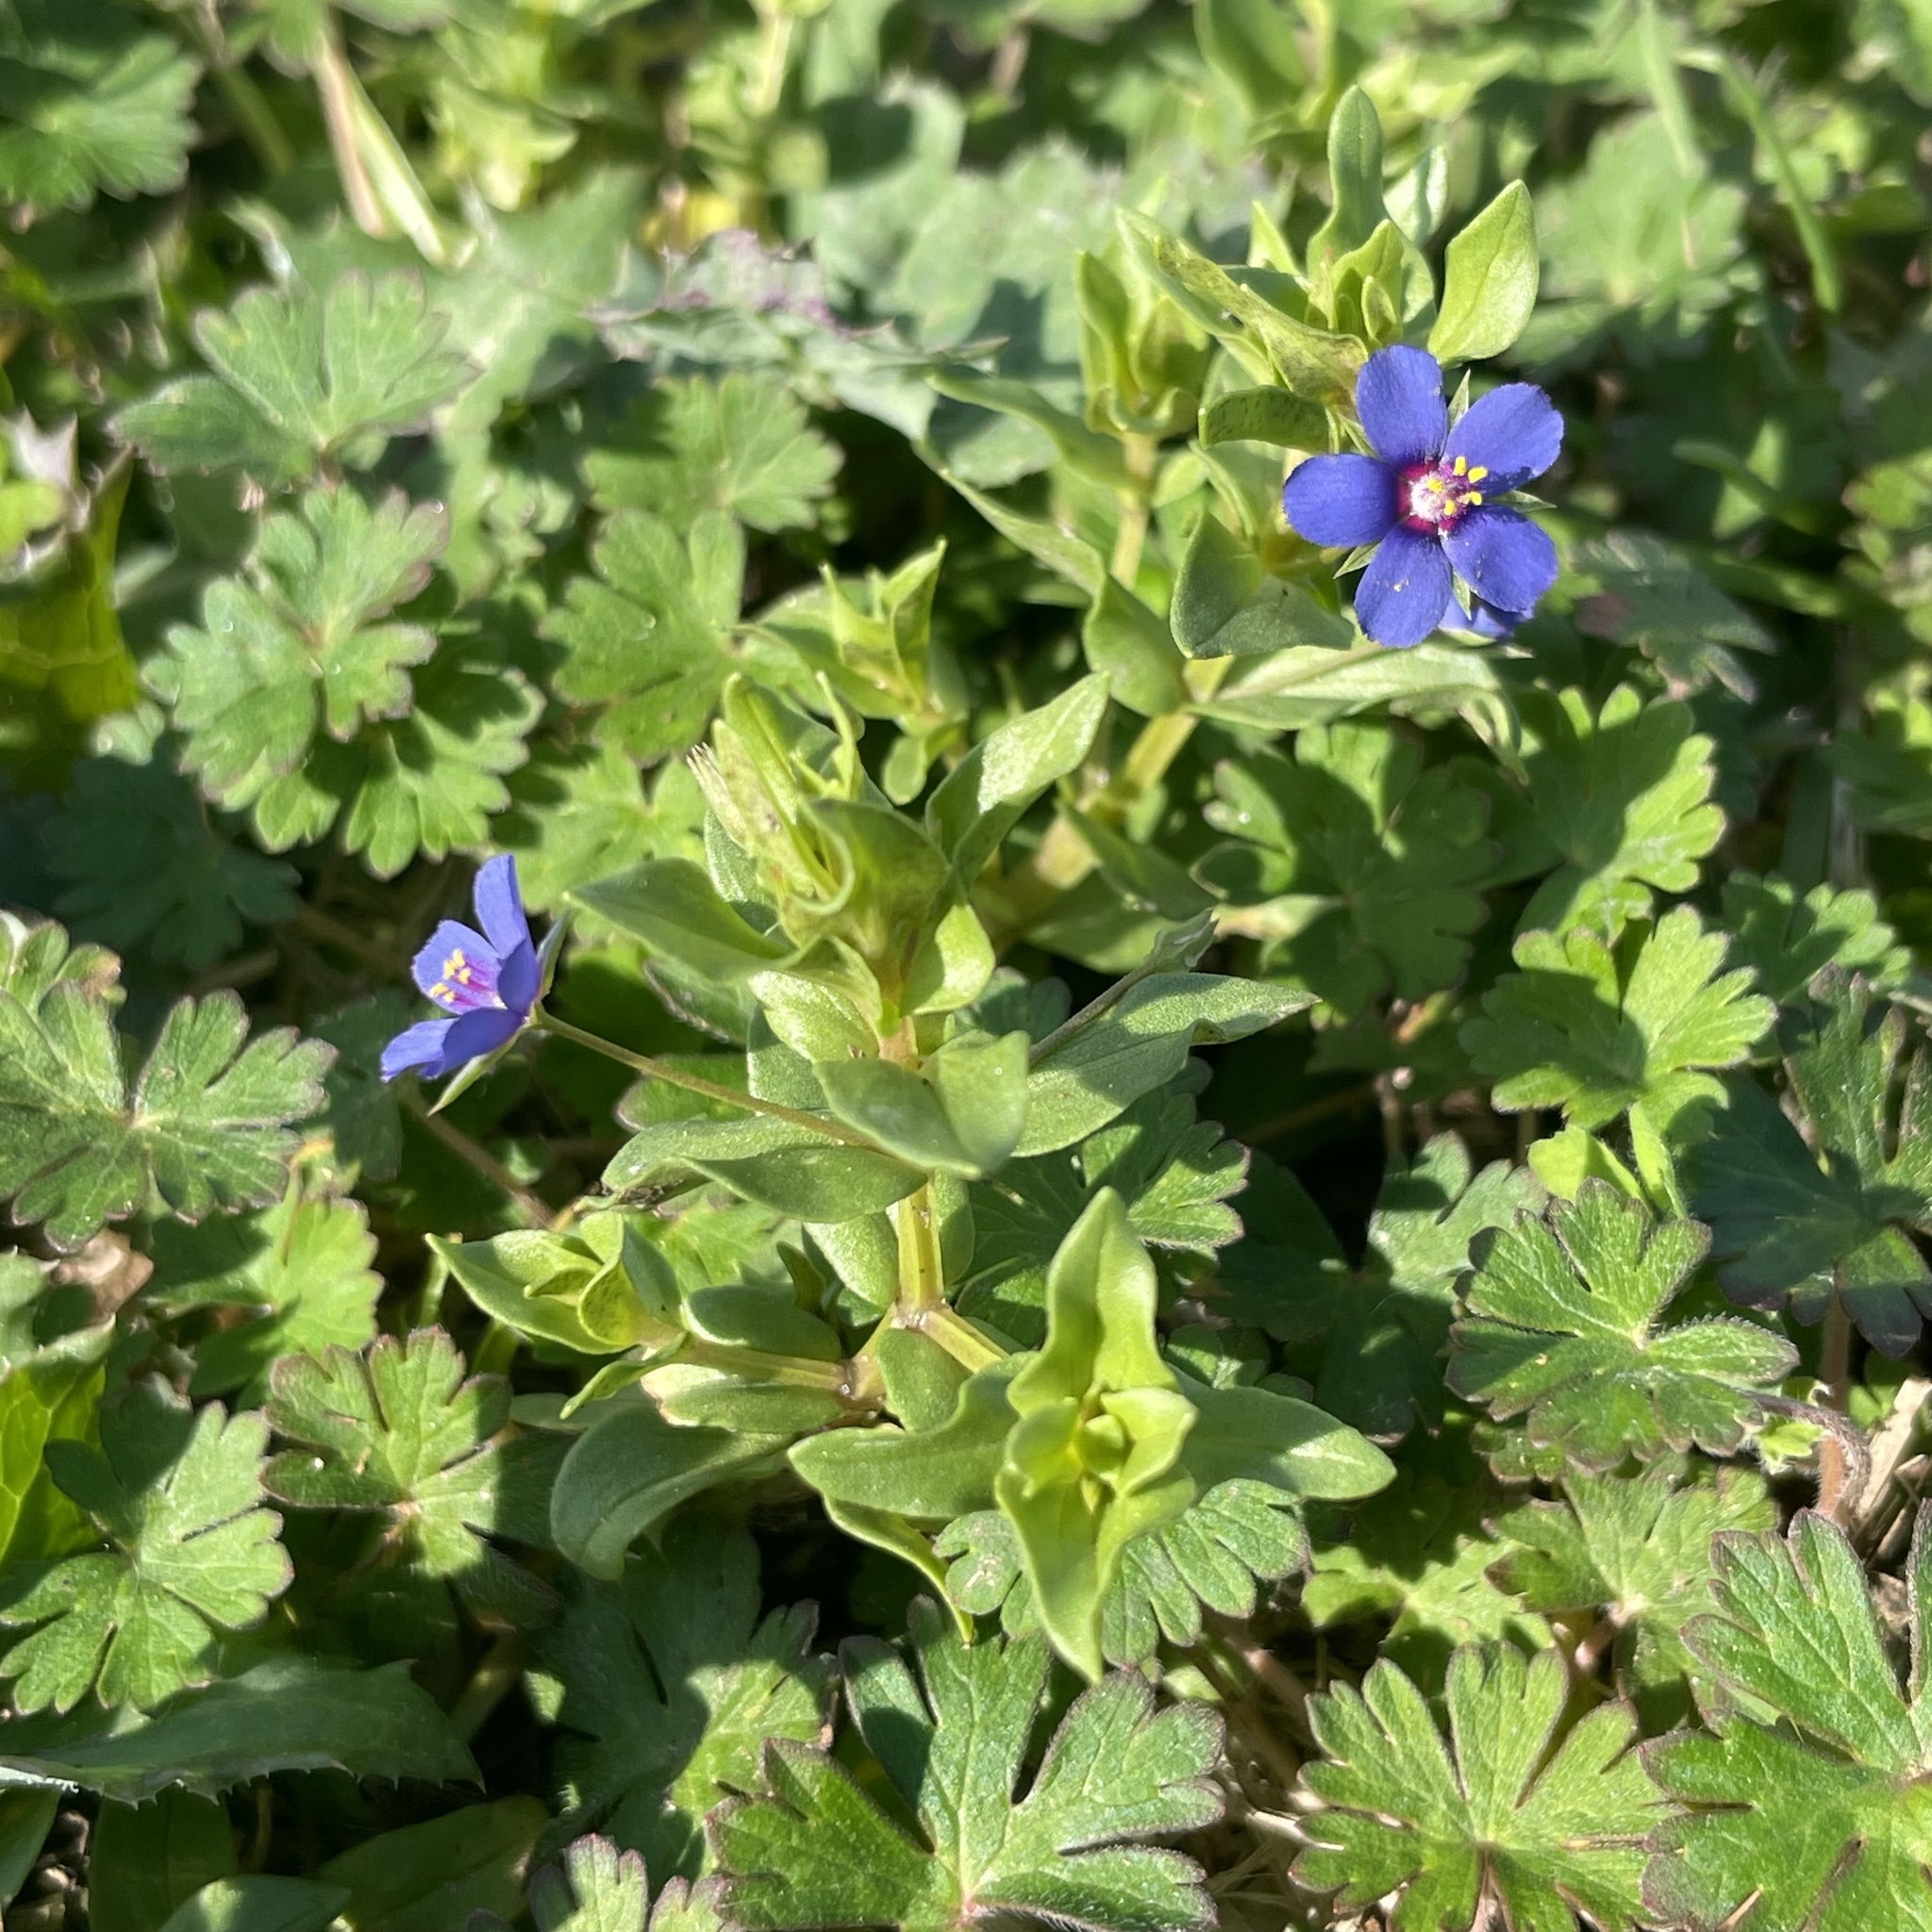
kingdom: Plantae
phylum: Tracheophyta
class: Magnoliopsida
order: Ericales
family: Primulaceae
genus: Lysimachia
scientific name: Lysimachia foemina
